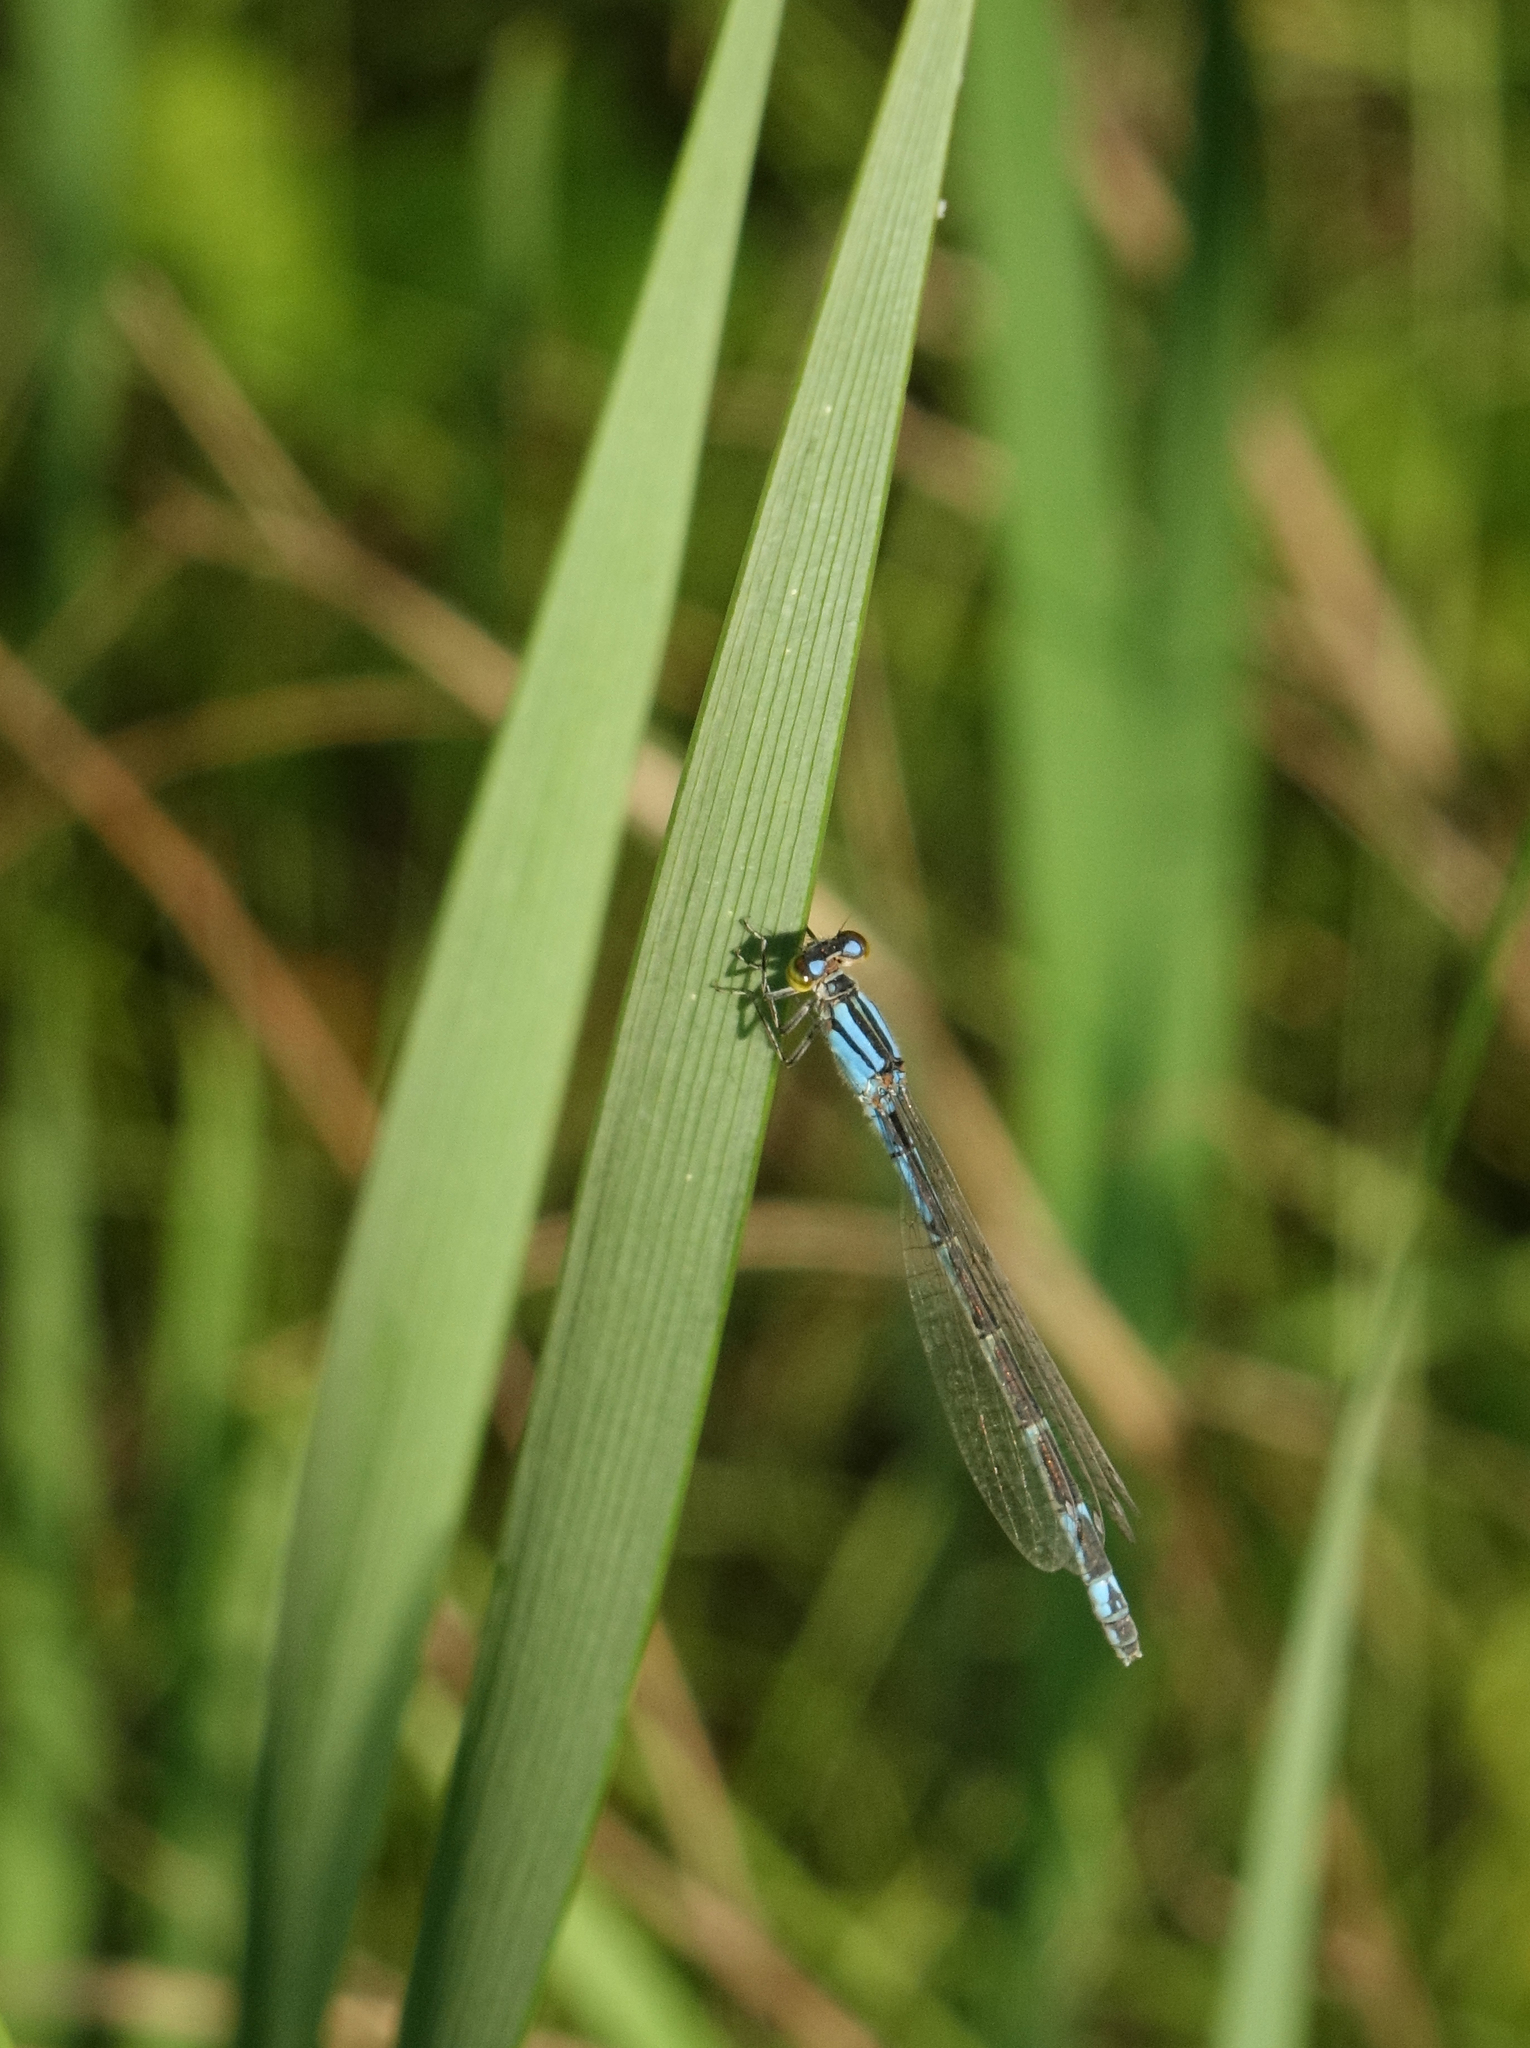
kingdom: Animalia
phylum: Arthropoda
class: Insecta
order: Odonata
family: Coenagrionidae
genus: Enallagma
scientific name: Enallagma cyathigerum
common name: Common blue damselfly
